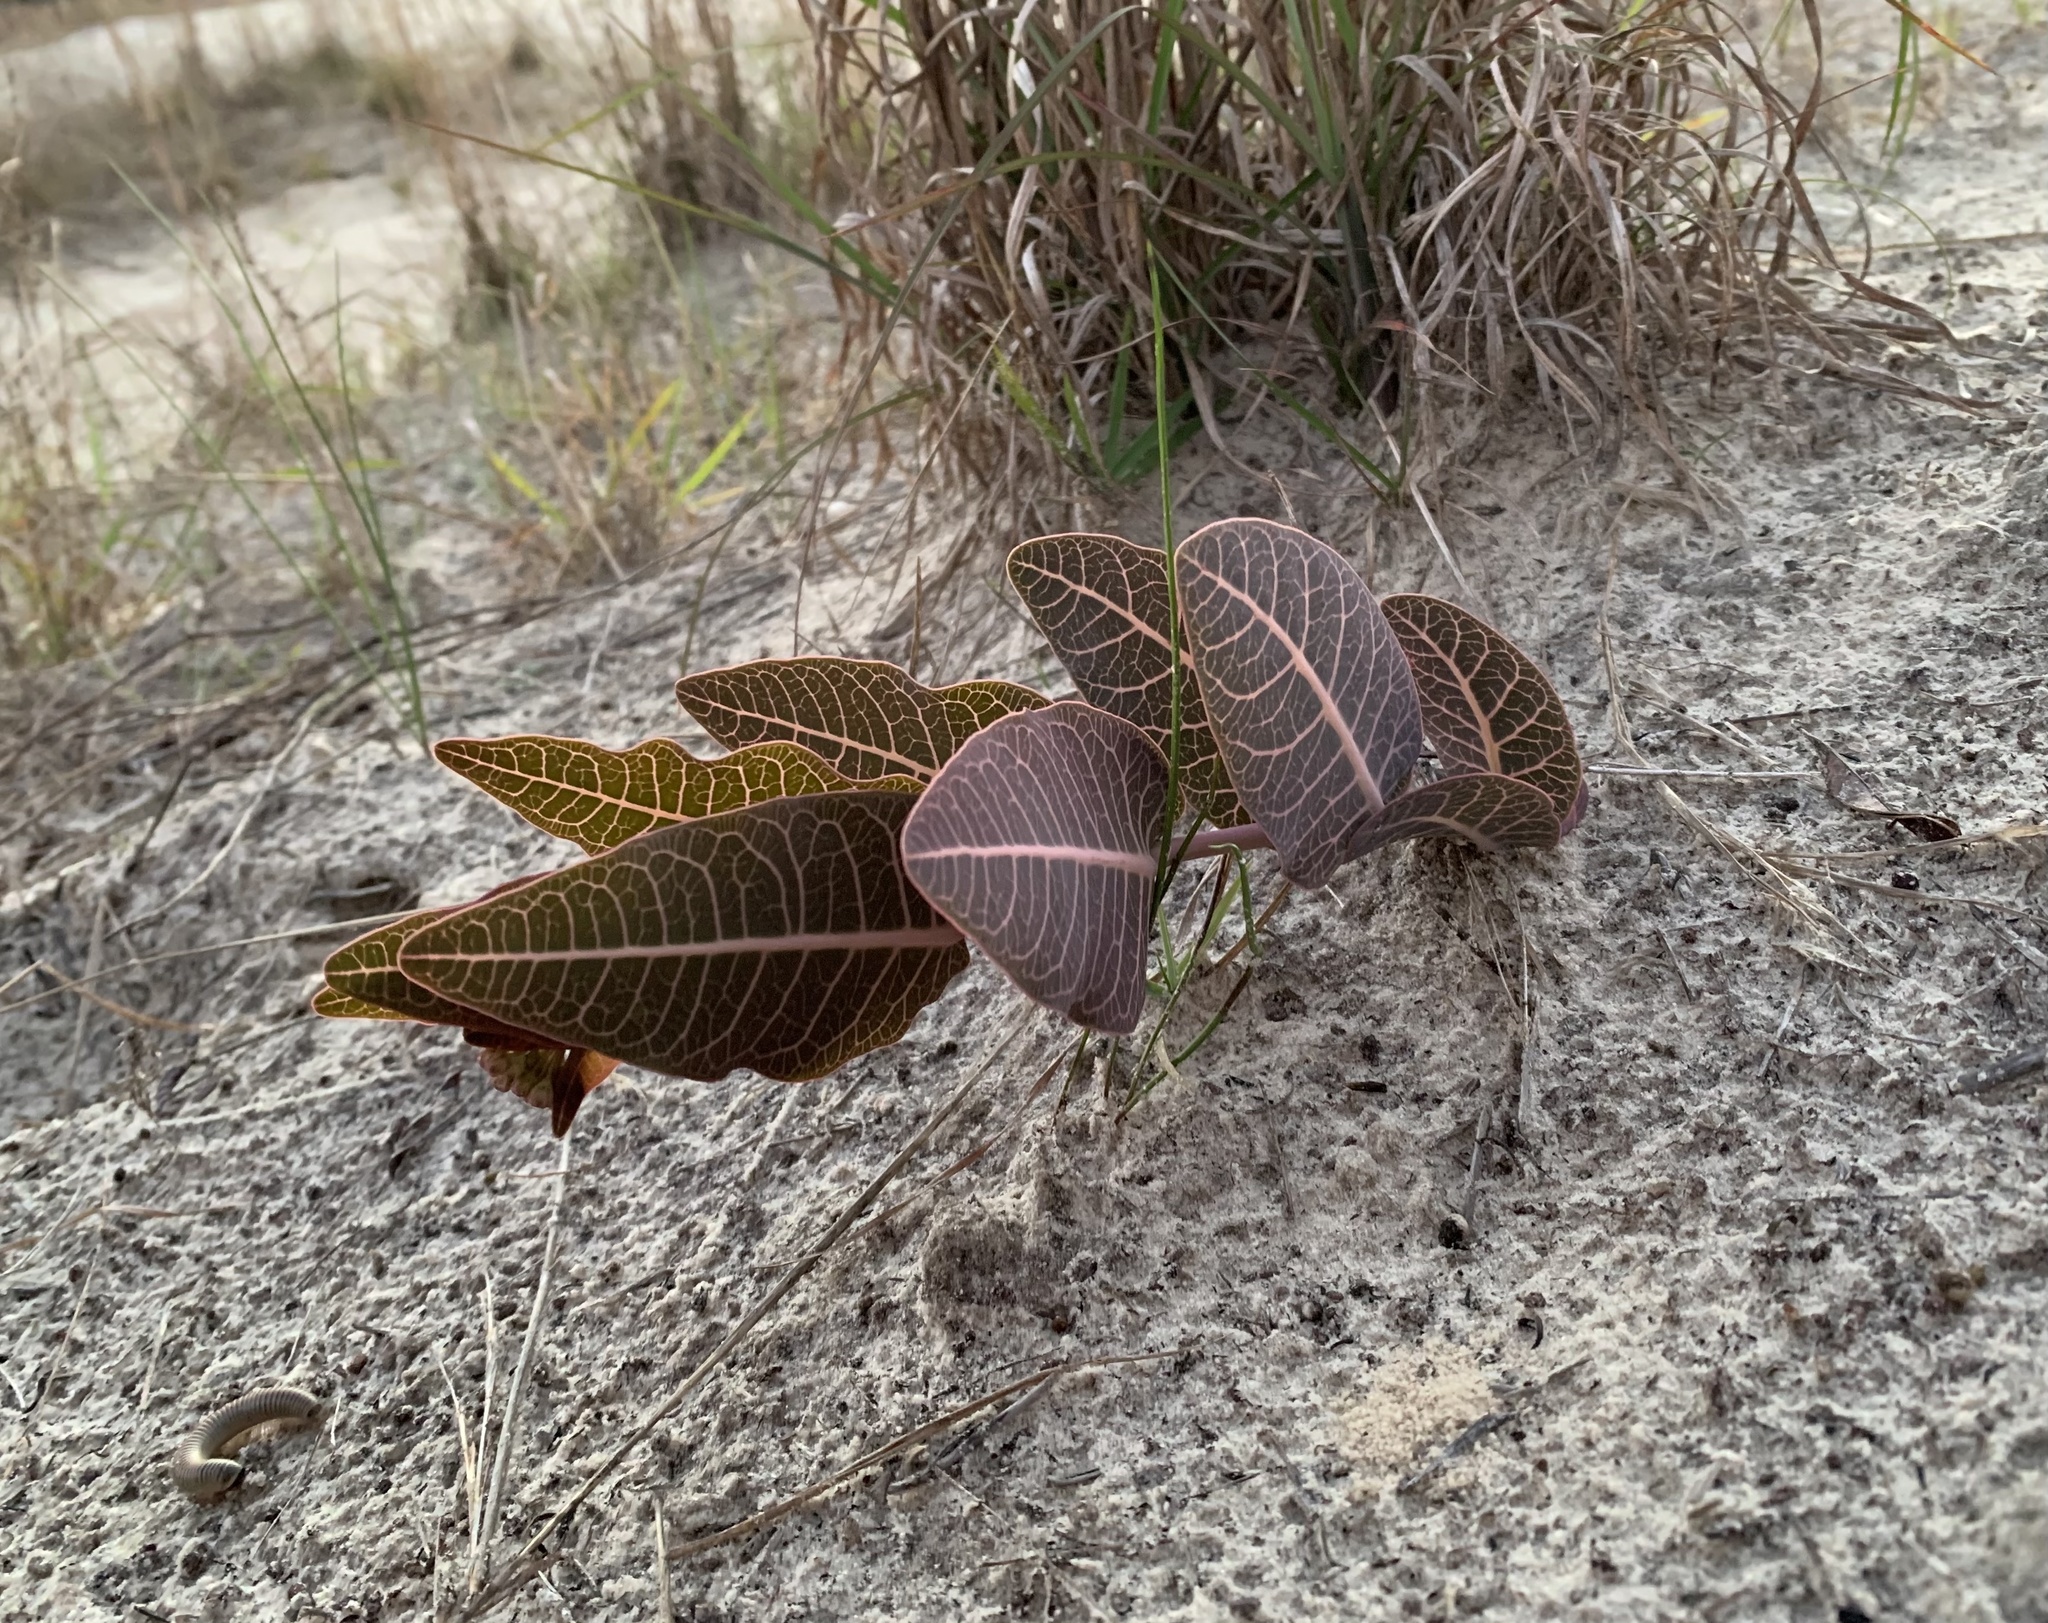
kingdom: Plantae
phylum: Tracheophyta
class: Magnoliopsida
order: Gentianales
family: Apocynaceae
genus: Asclepias
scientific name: Asclepias humistrata
